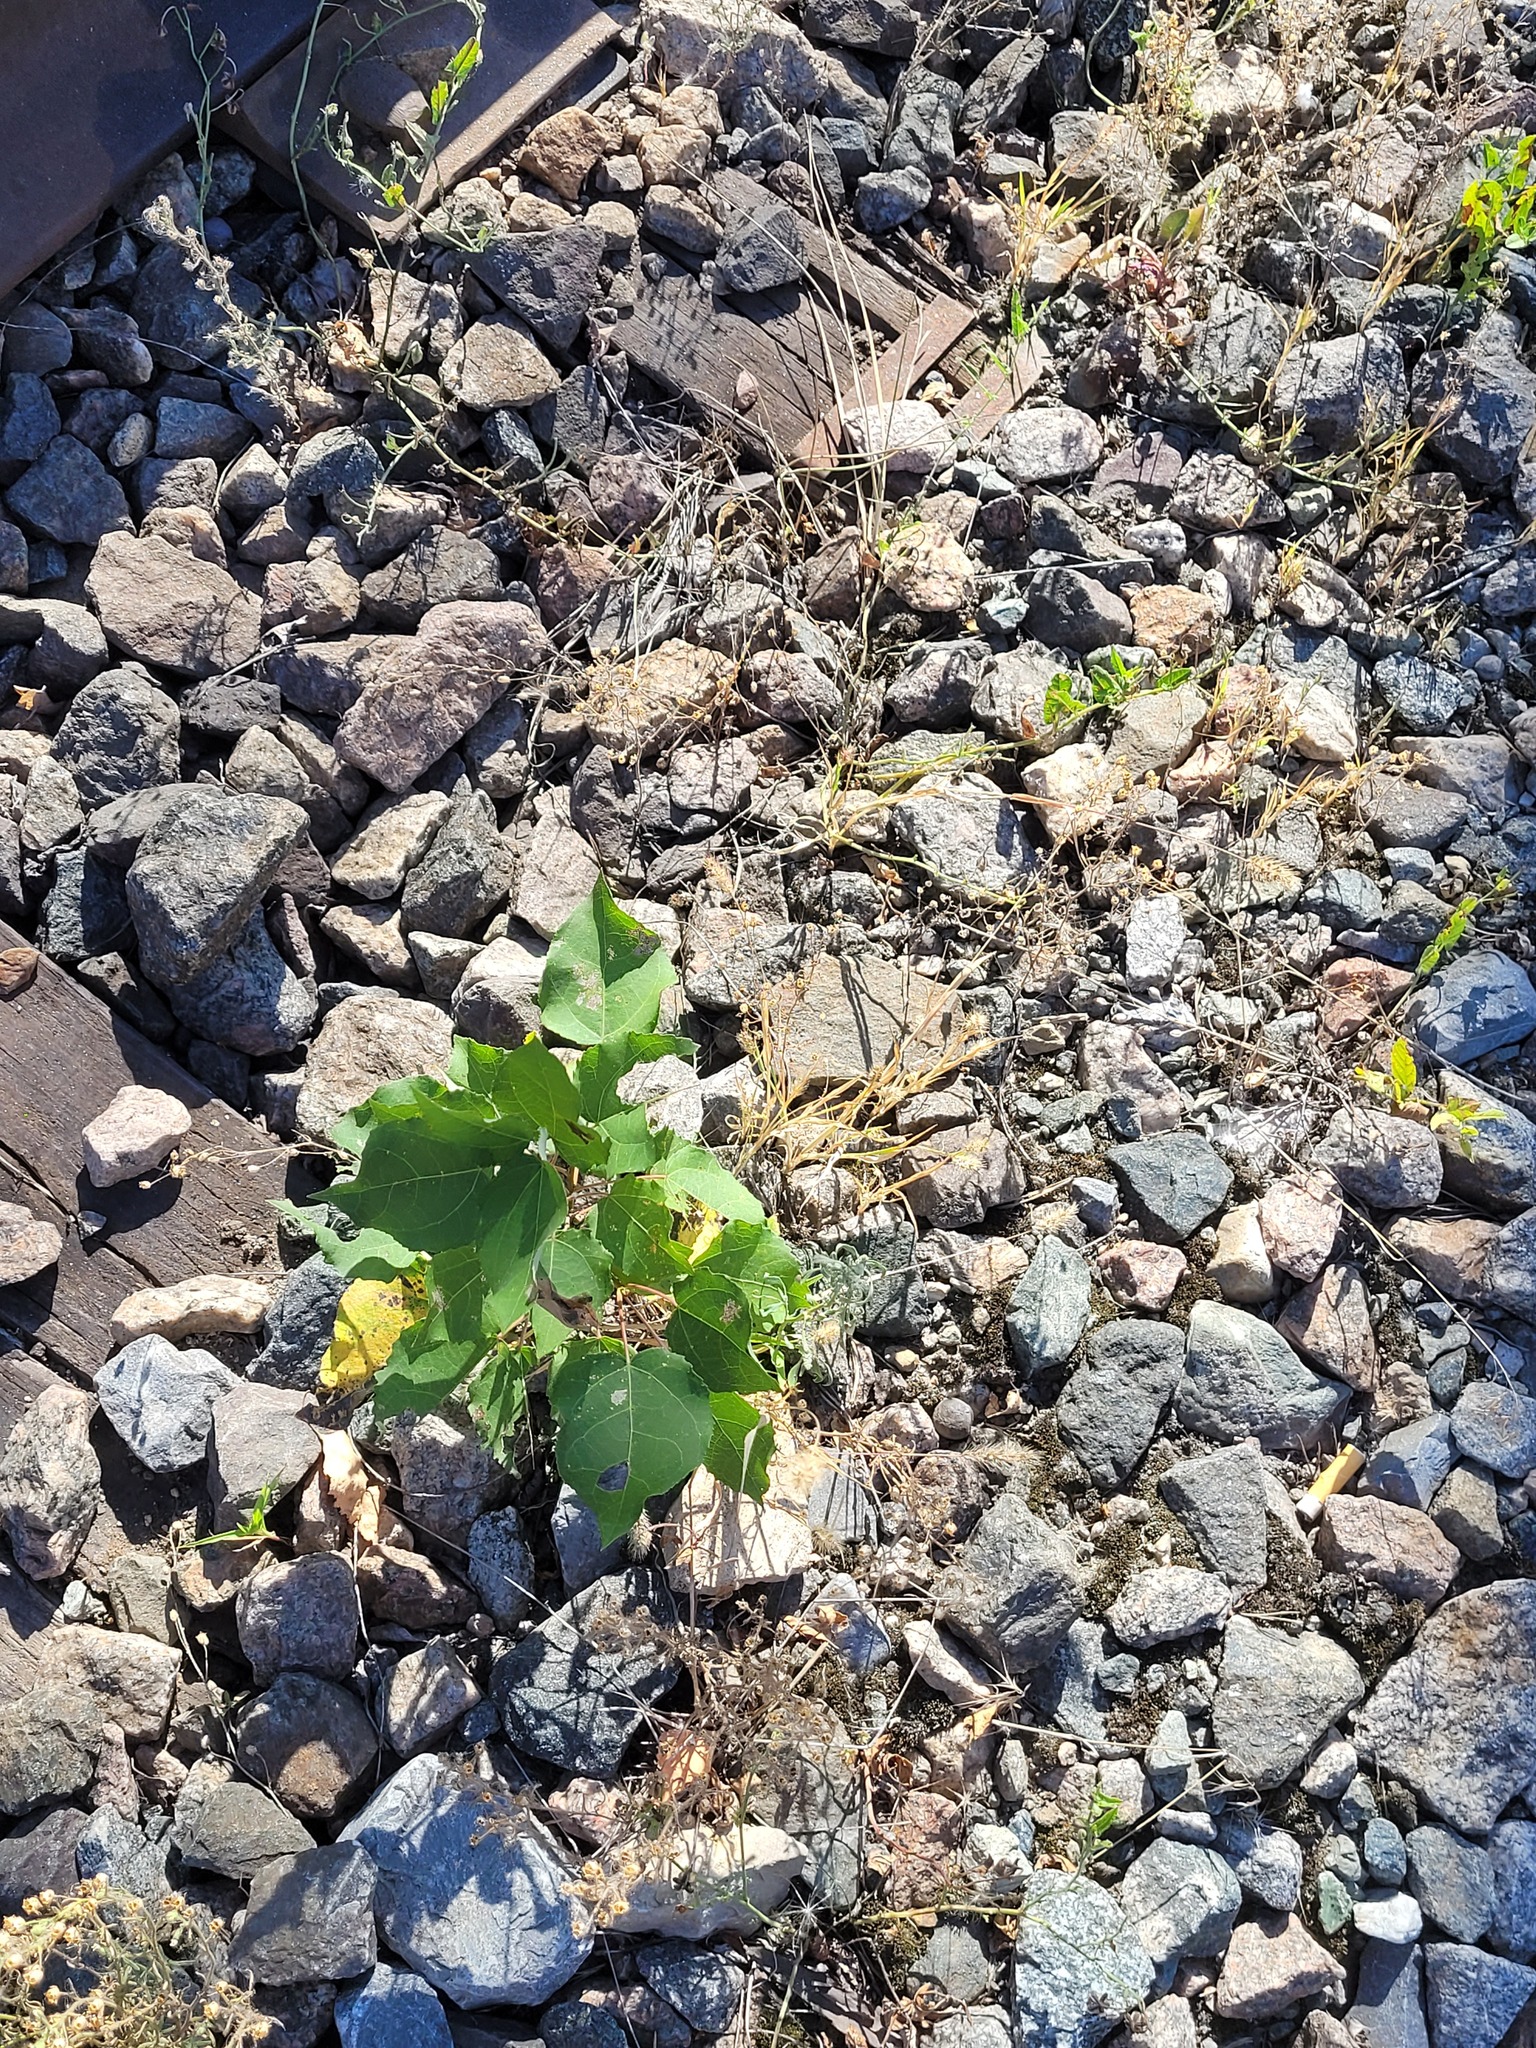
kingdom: Plantae
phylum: Tracheophyta
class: Magnoliopsida
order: Malpighiales
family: Salicaceae
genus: Populus
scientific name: Populus tremula
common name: European aspen
